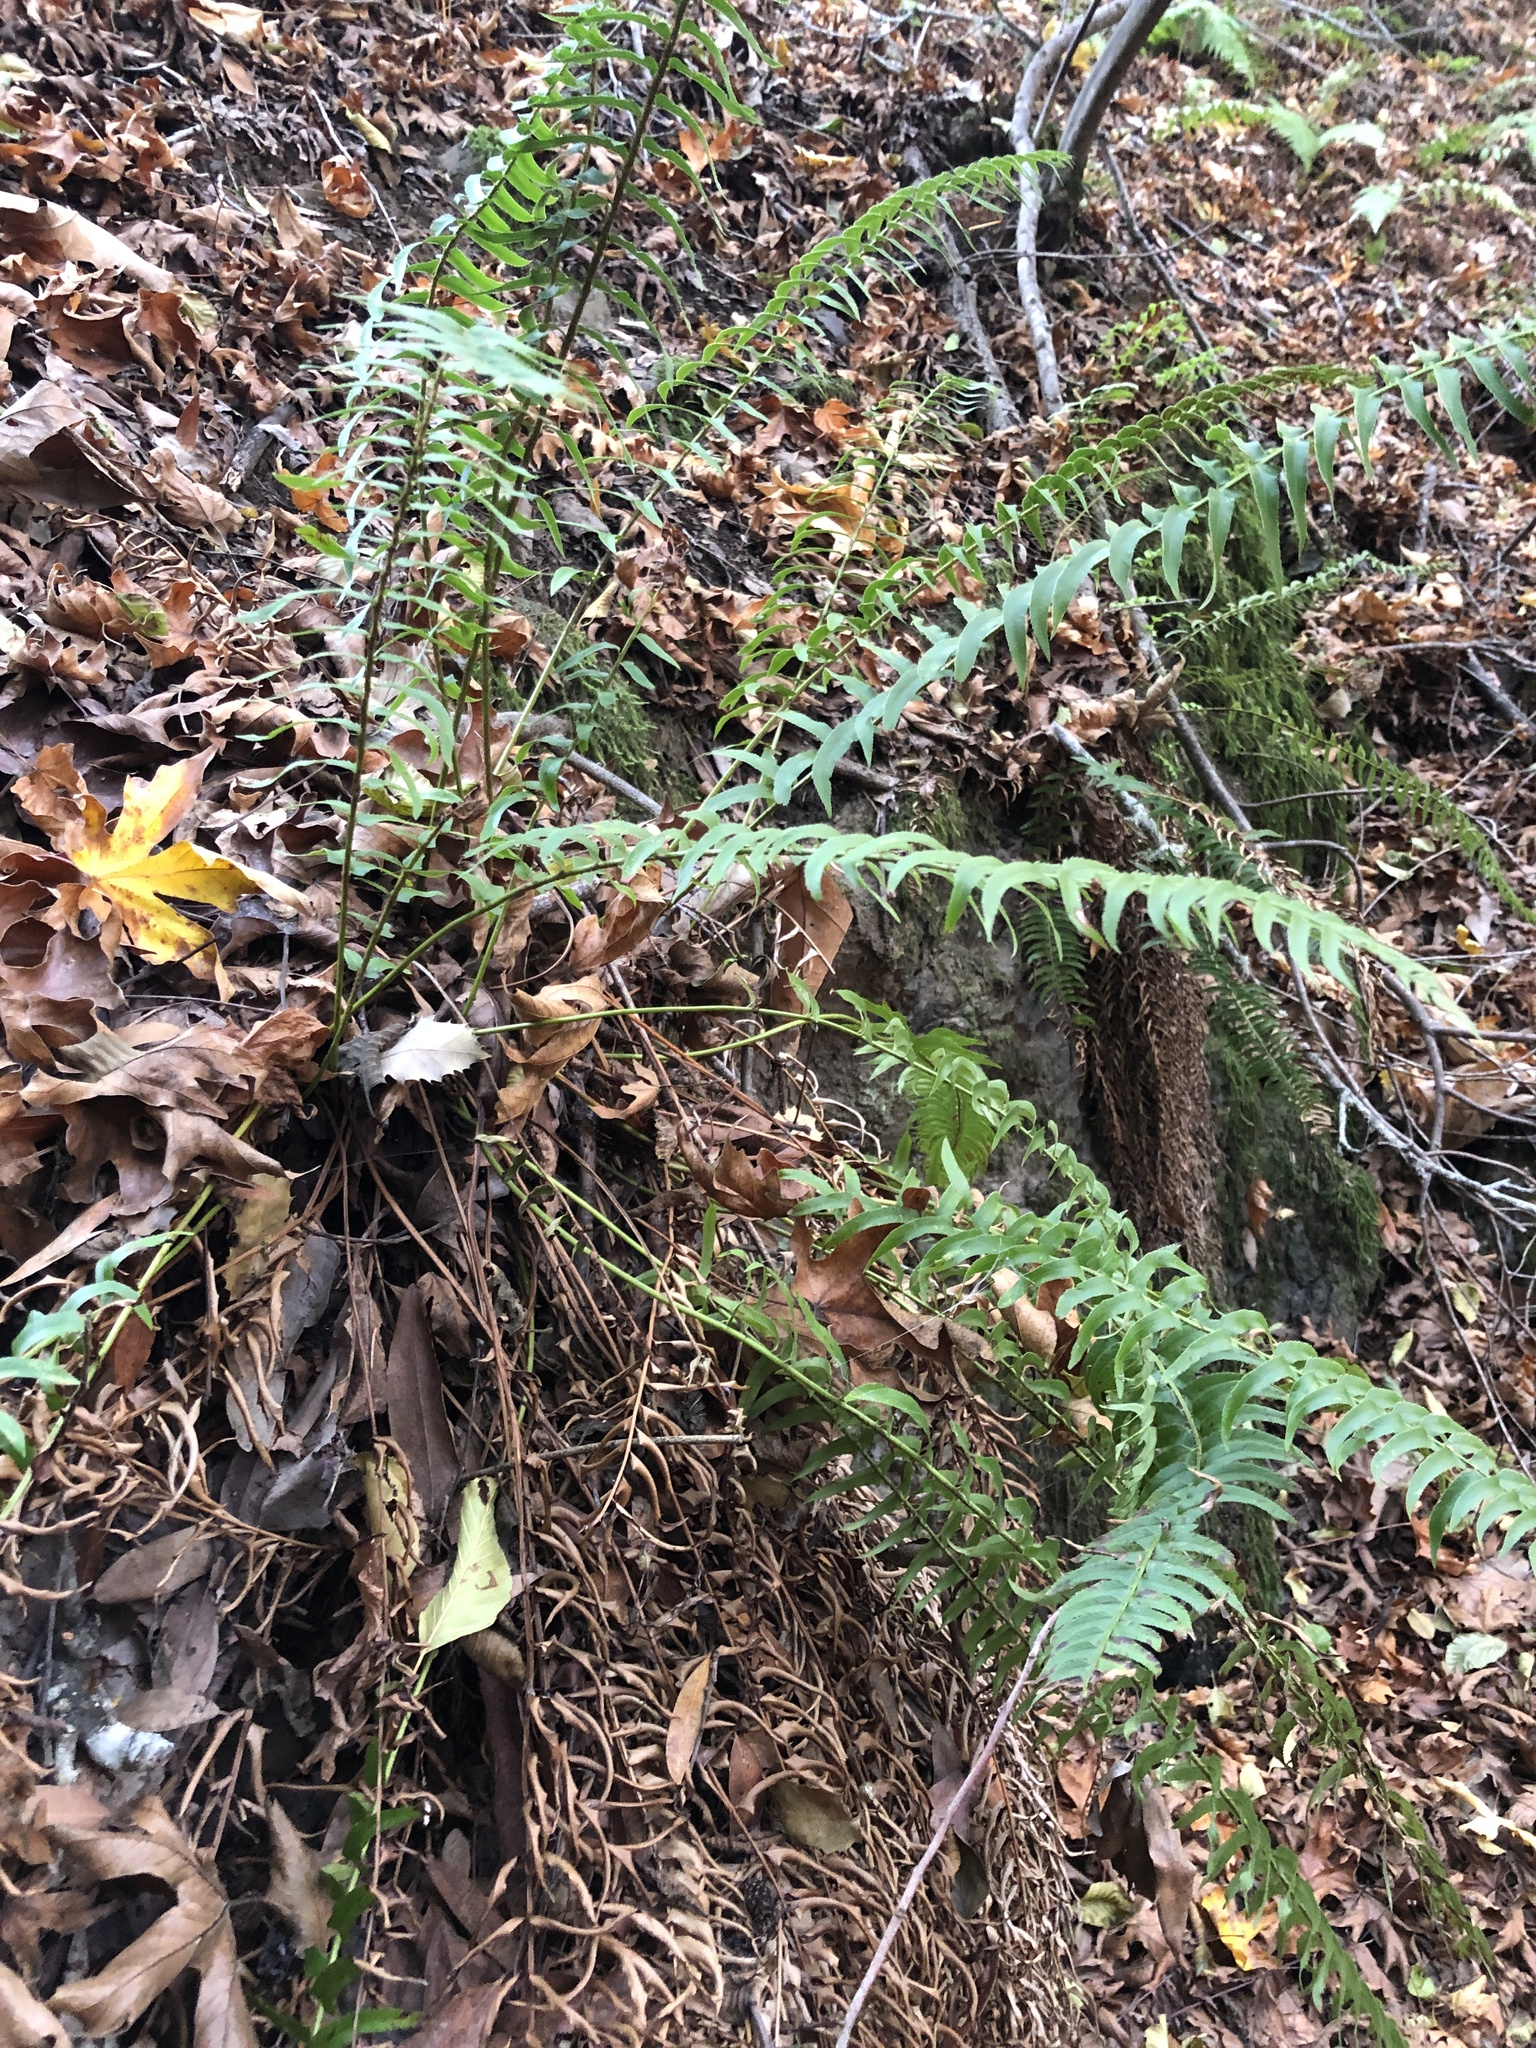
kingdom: Plantae
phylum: Tracheophyta
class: Polypodiopsida
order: Polypodiales
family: Dryopteridaceae
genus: Polystichum
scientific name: Polystichum munitum
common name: Western sword-fern
